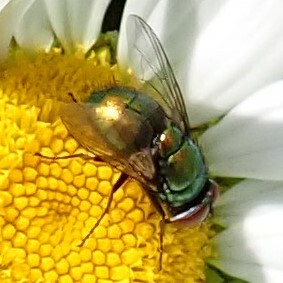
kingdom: Animalia
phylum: Arthropoda
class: Insecta
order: Diptera
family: Calliphoridae
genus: Lucilia
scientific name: Lucilia
